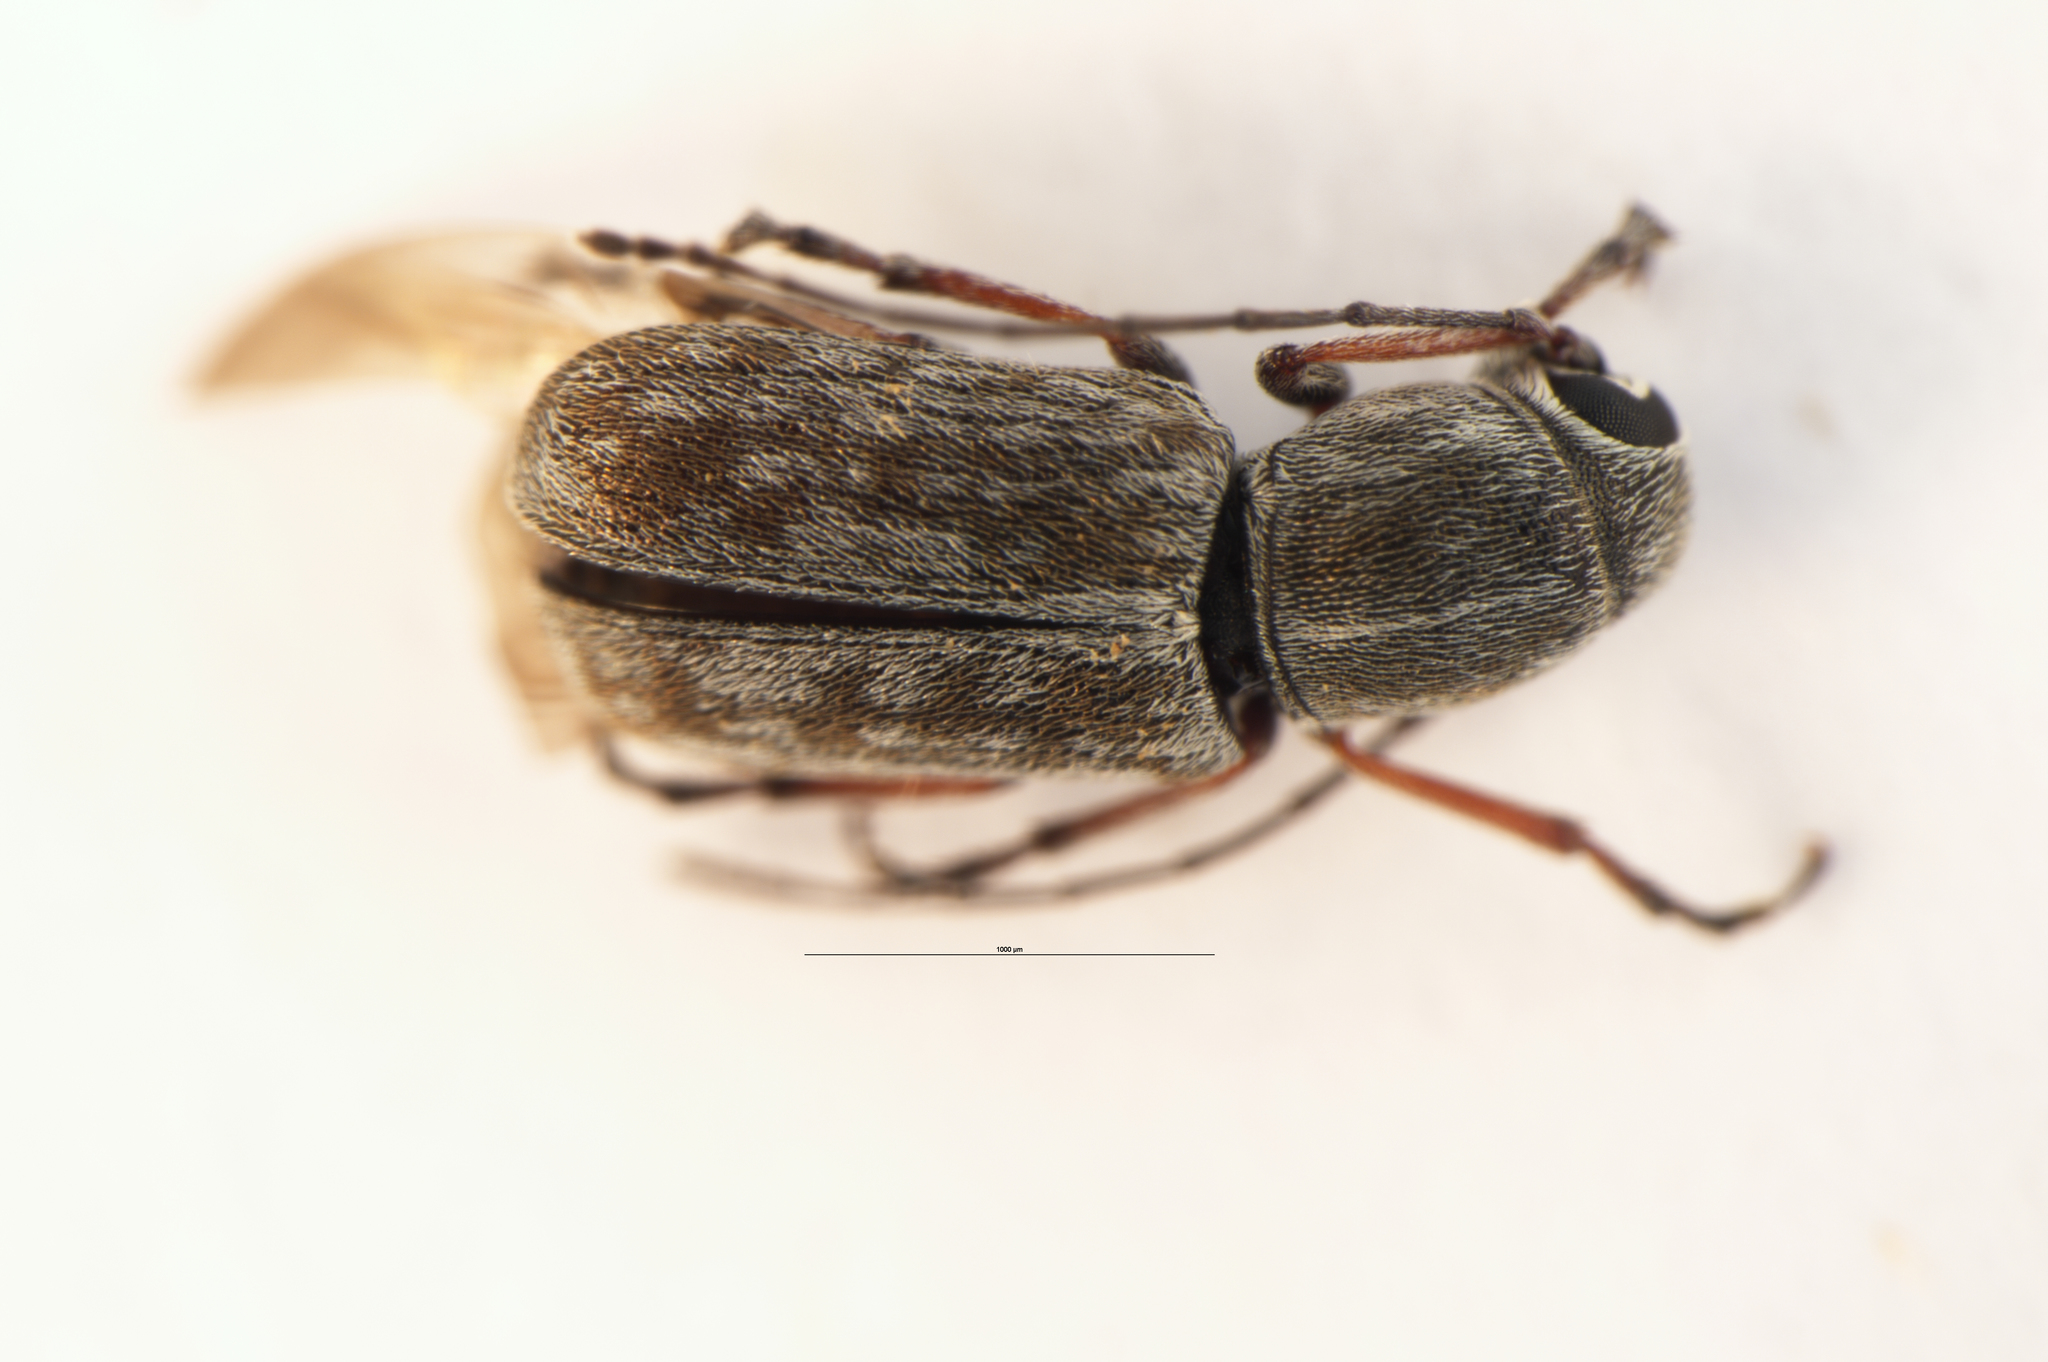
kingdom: Animalia
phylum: Arthropoda
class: Insecta
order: Coleoptera
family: Anthribidae
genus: Euciodes
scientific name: Euciodes suturalis
